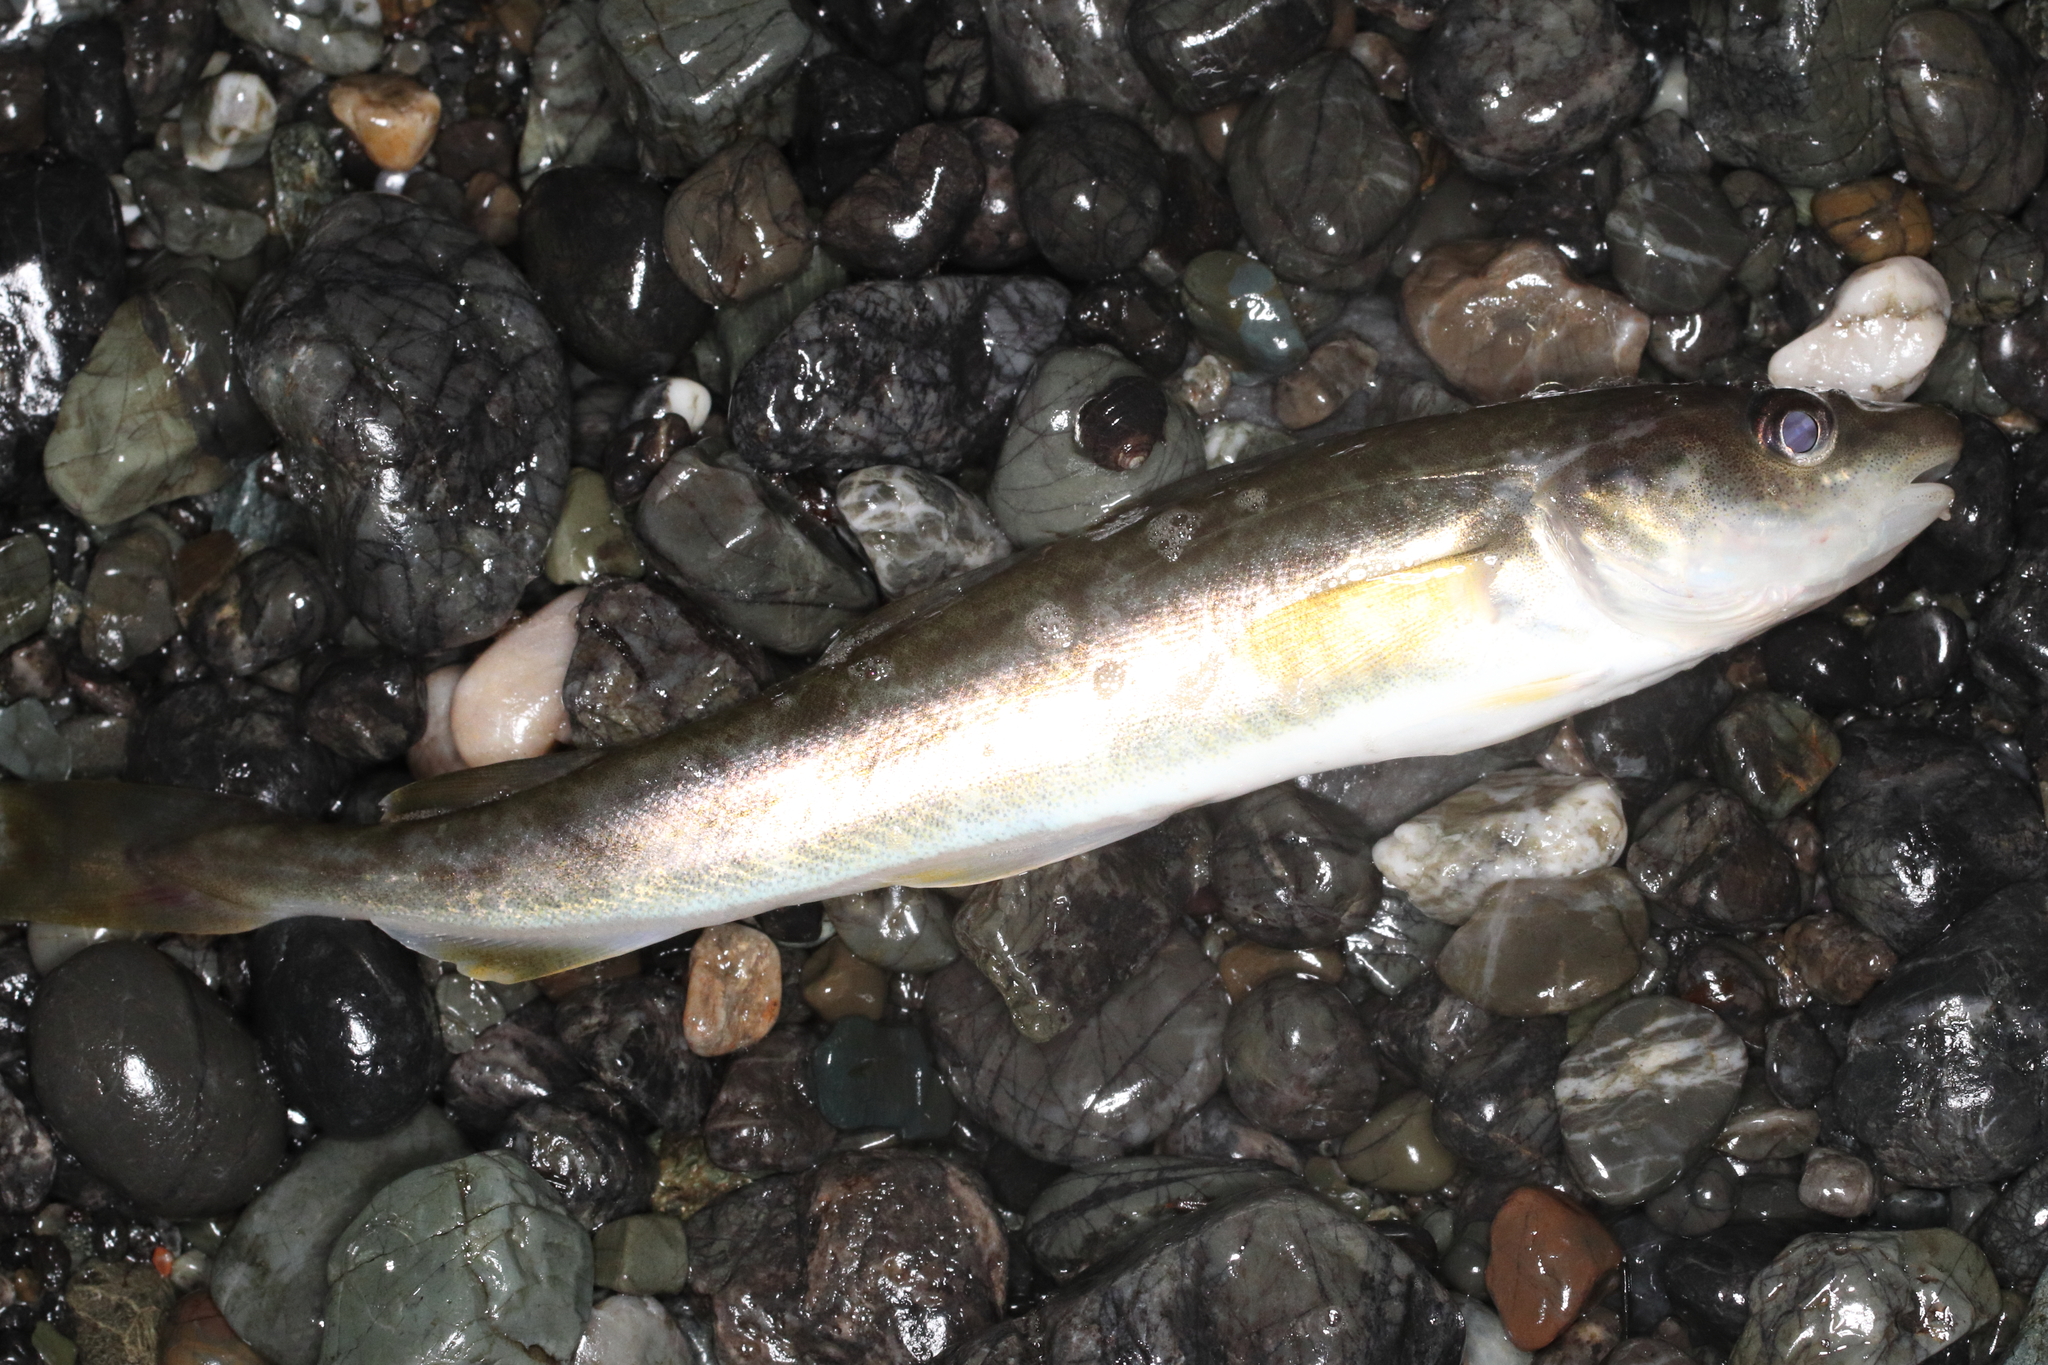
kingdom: Animalia
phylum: Chordata
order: Gadiformes
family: Gadidae
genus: Eleginus
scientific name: Eleginus gracilis
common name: Saffron cod
